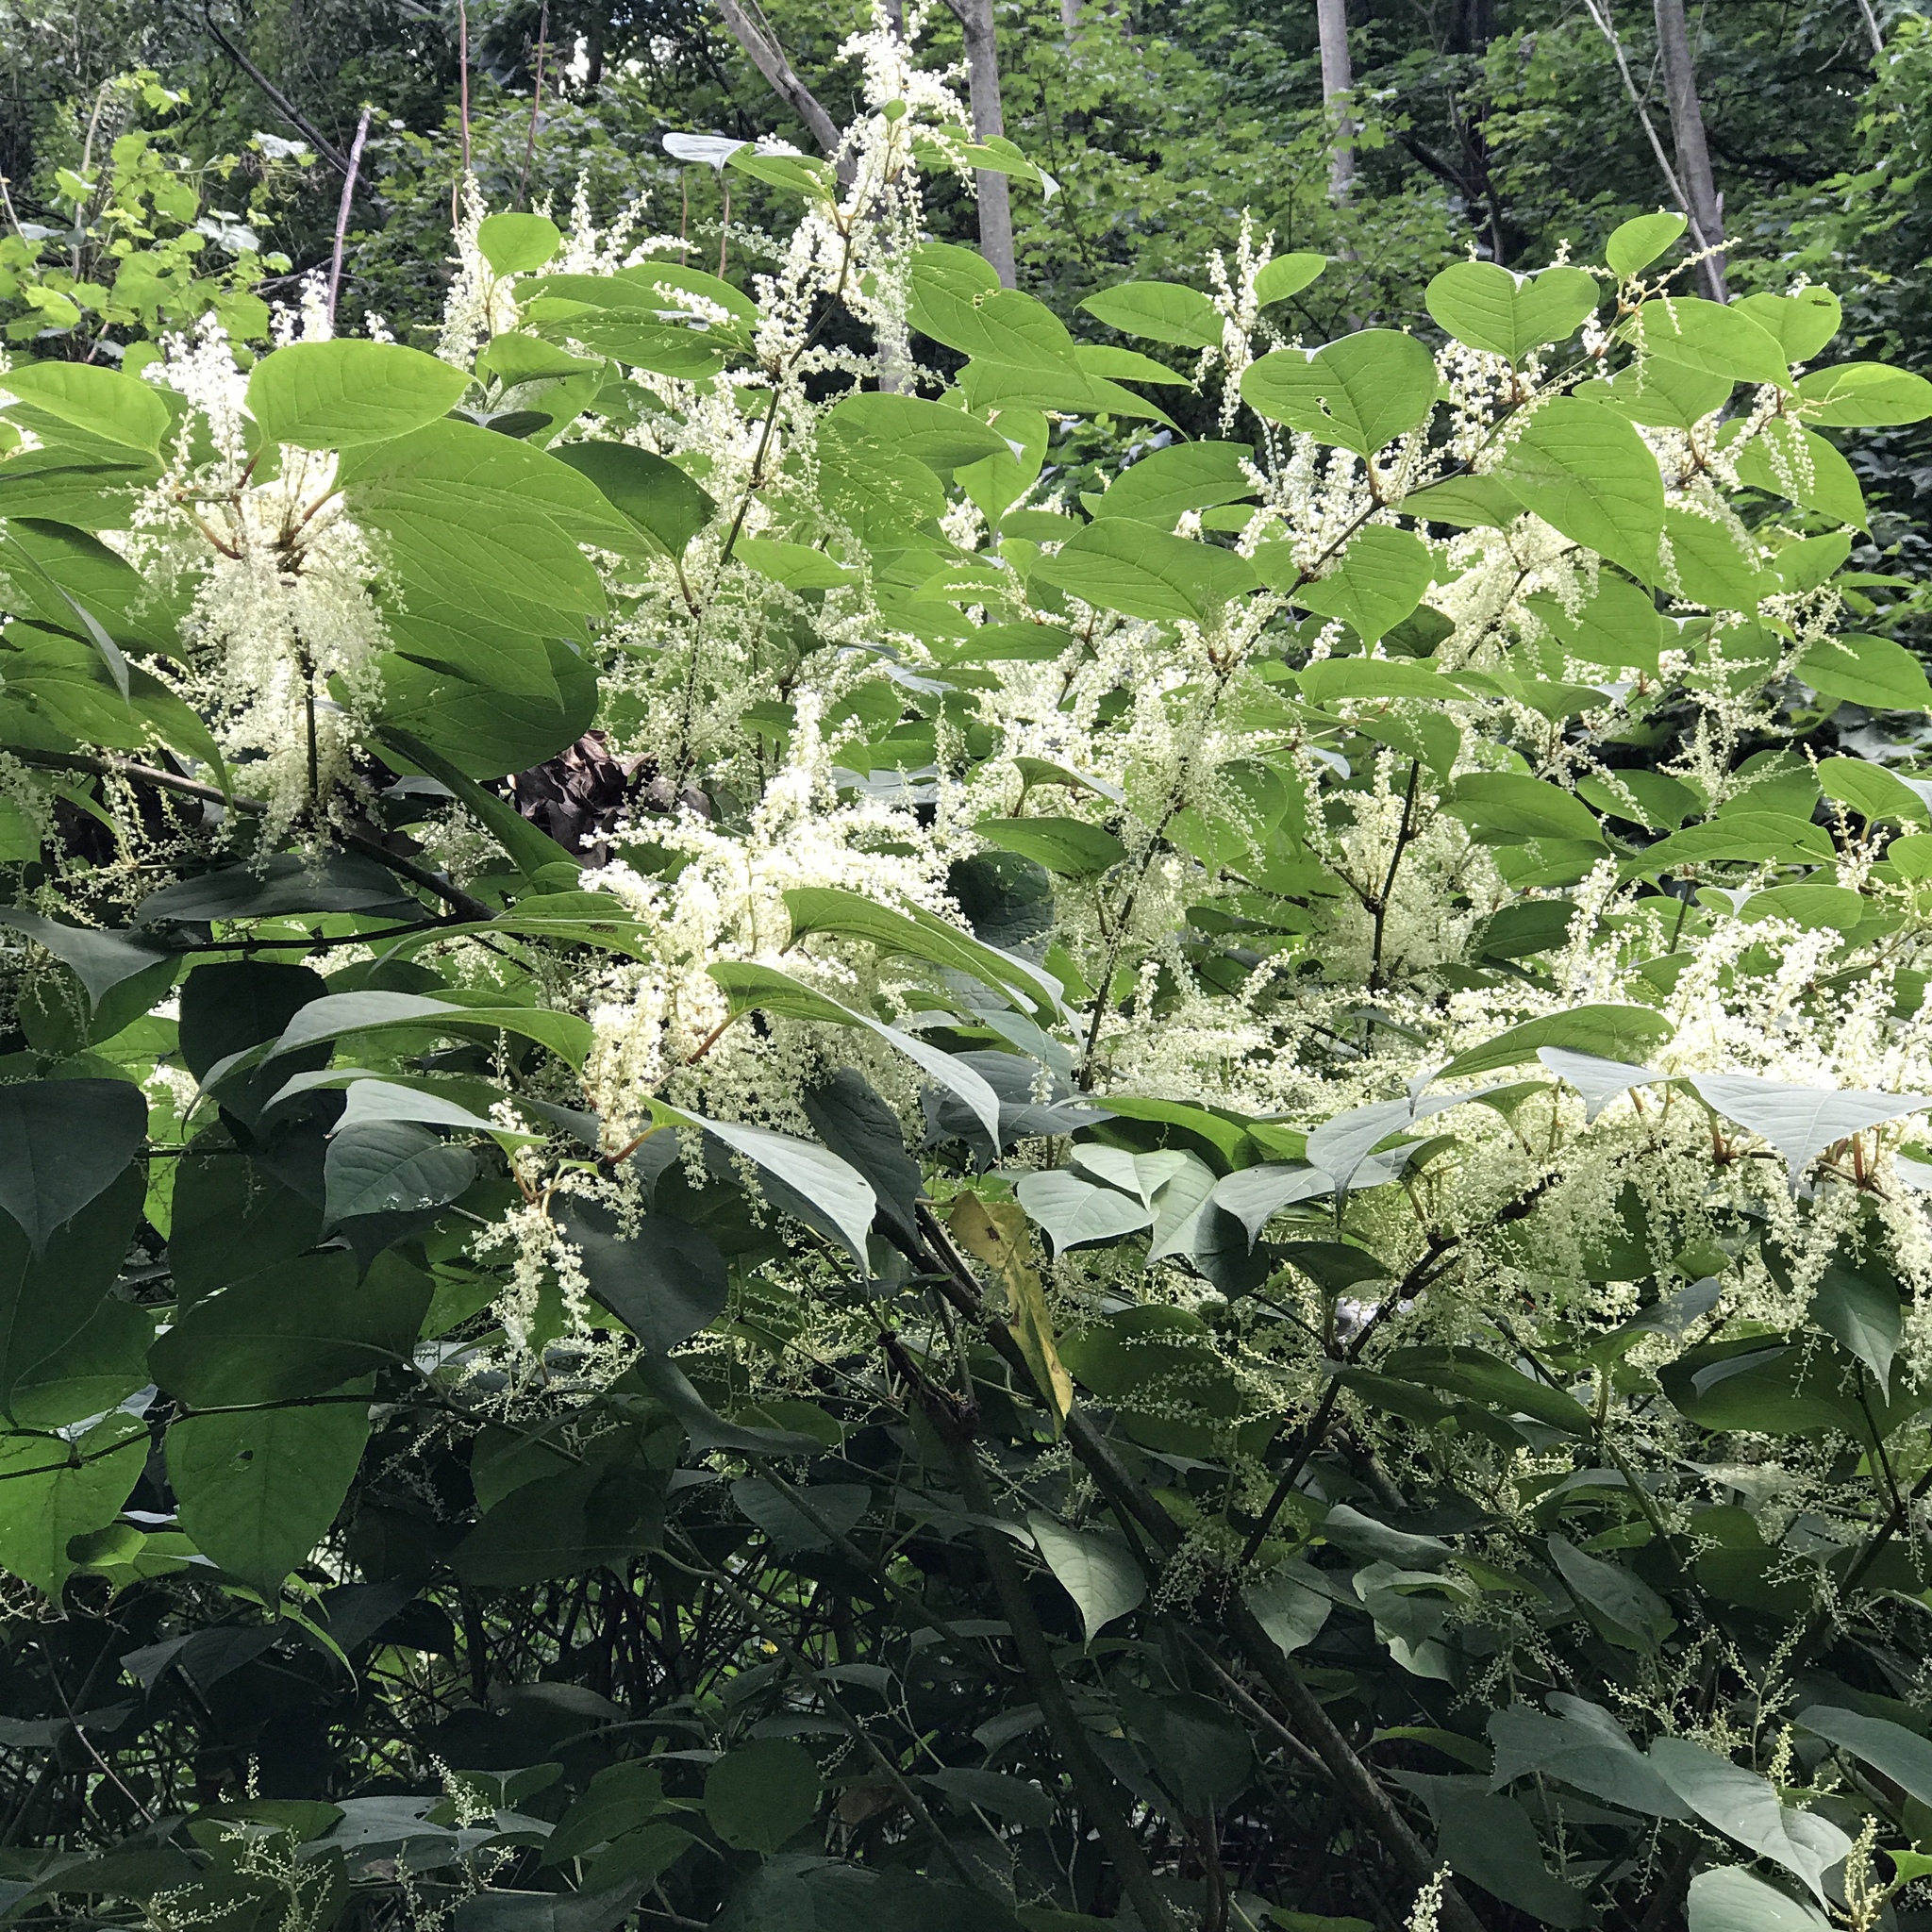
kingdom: Plantae
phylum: Tracheophyta
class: Magnoliopsida
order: Caryophyllales
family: Polygonaceae
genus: Reynoutria
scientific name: Reynoutria japonica
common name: Japanese knotweed
